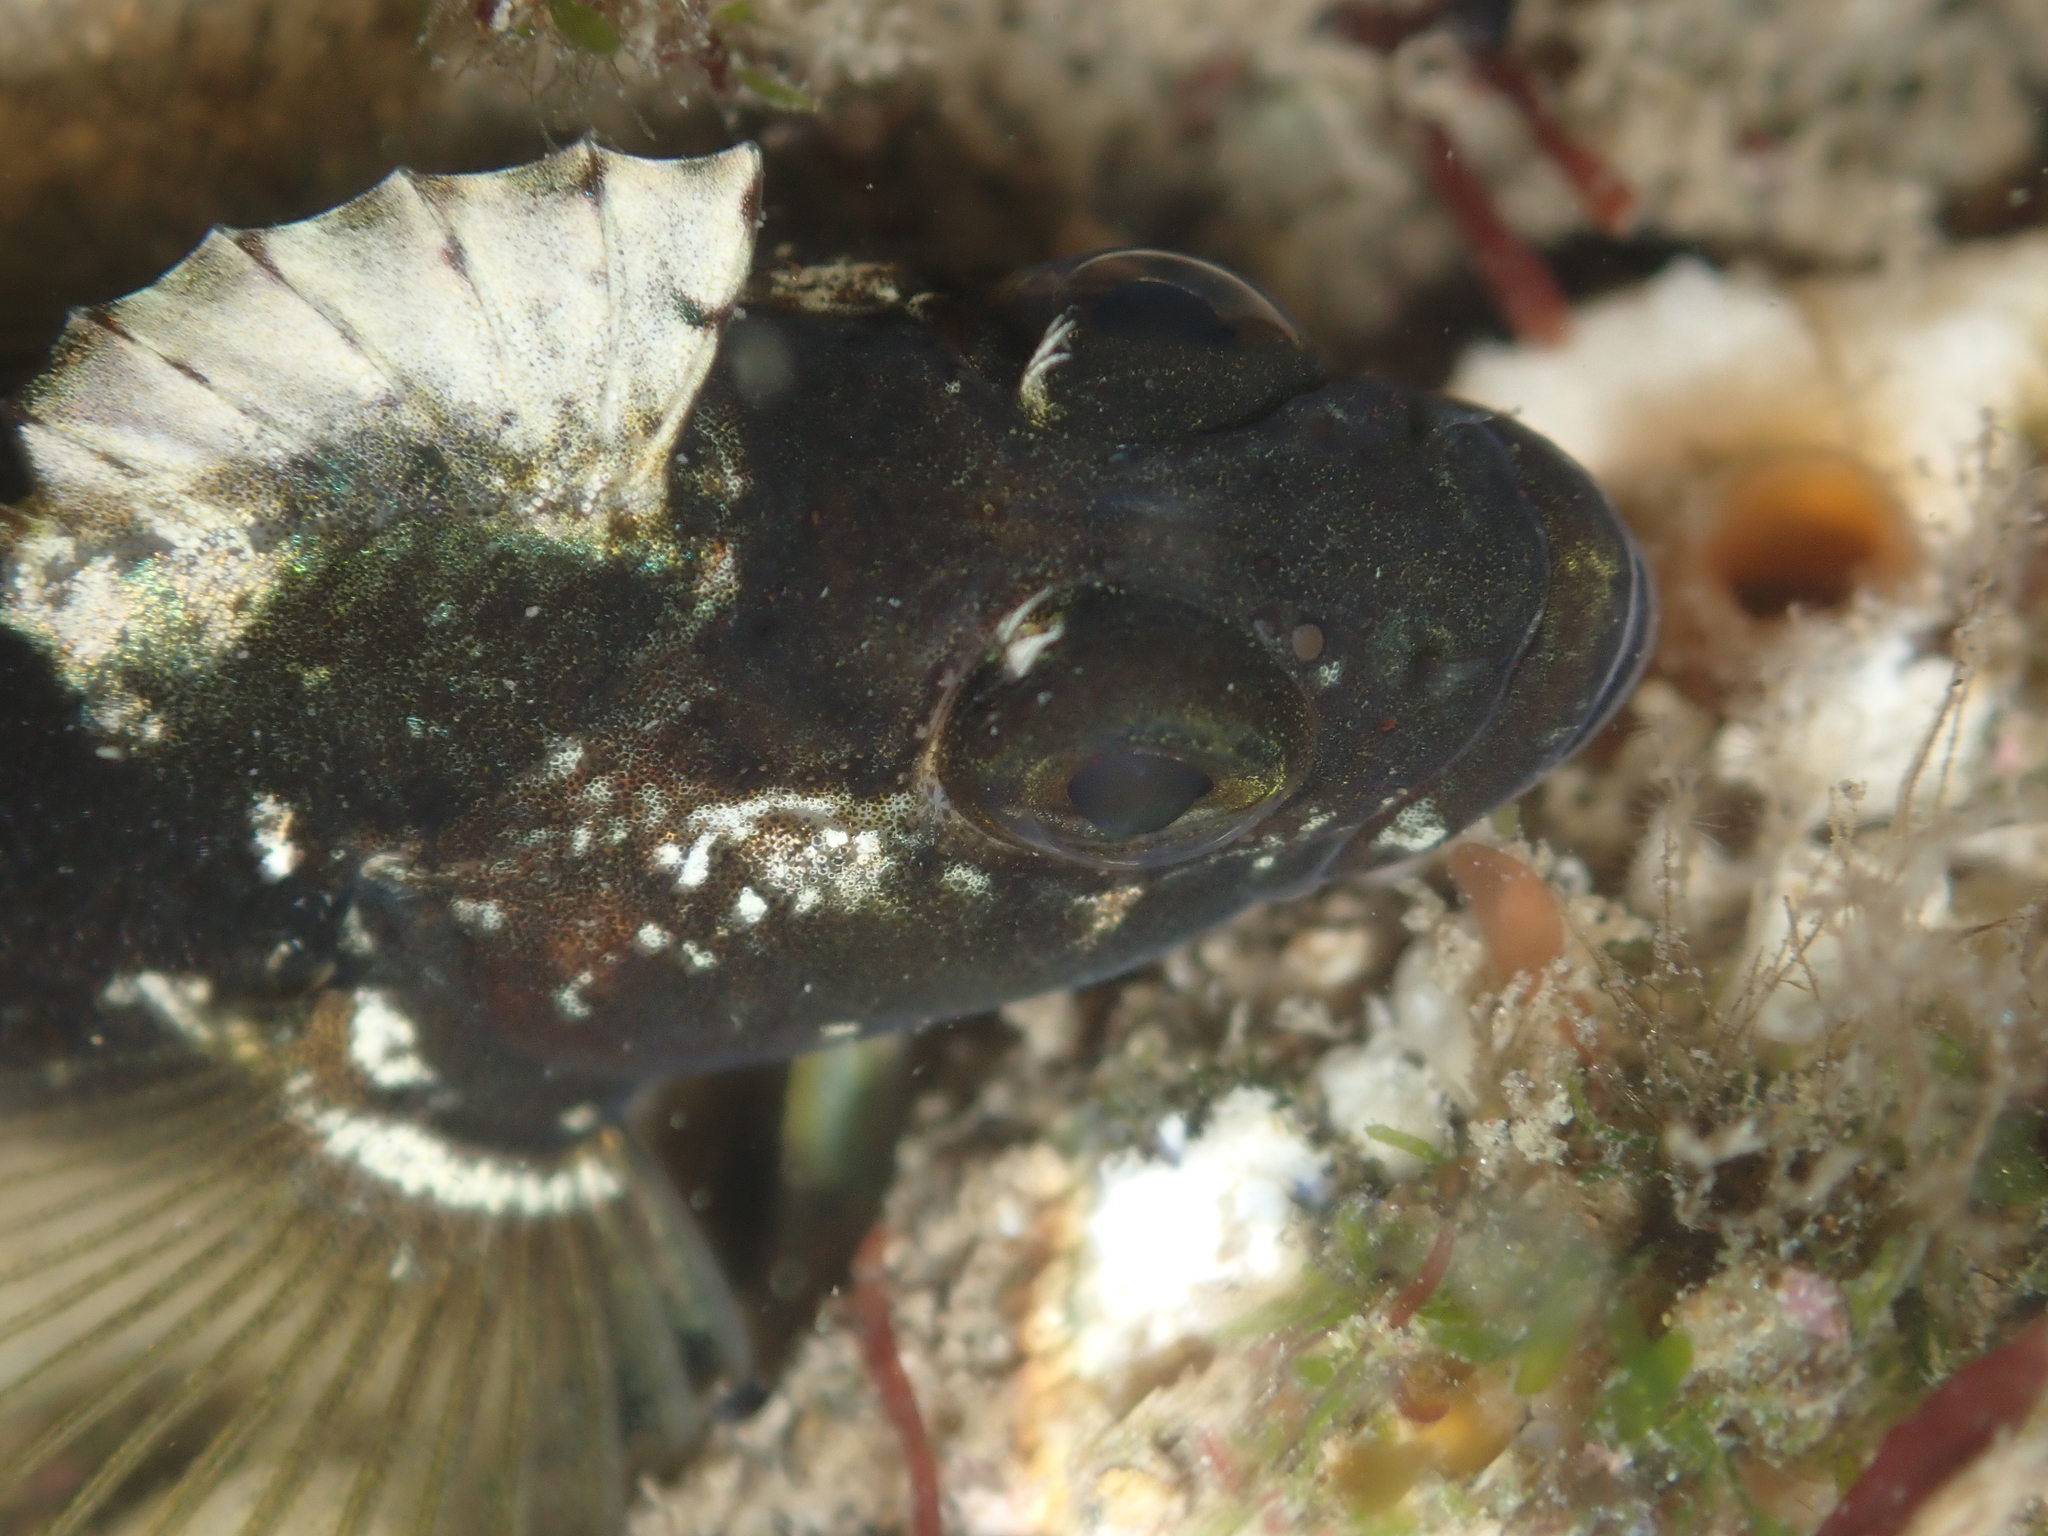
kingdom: Animalia
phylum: Chordata
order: Perciformes
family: Tripterygiidae
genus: Forsterygion
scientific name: Forsterygion capito
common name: Spotted robust triplefin
